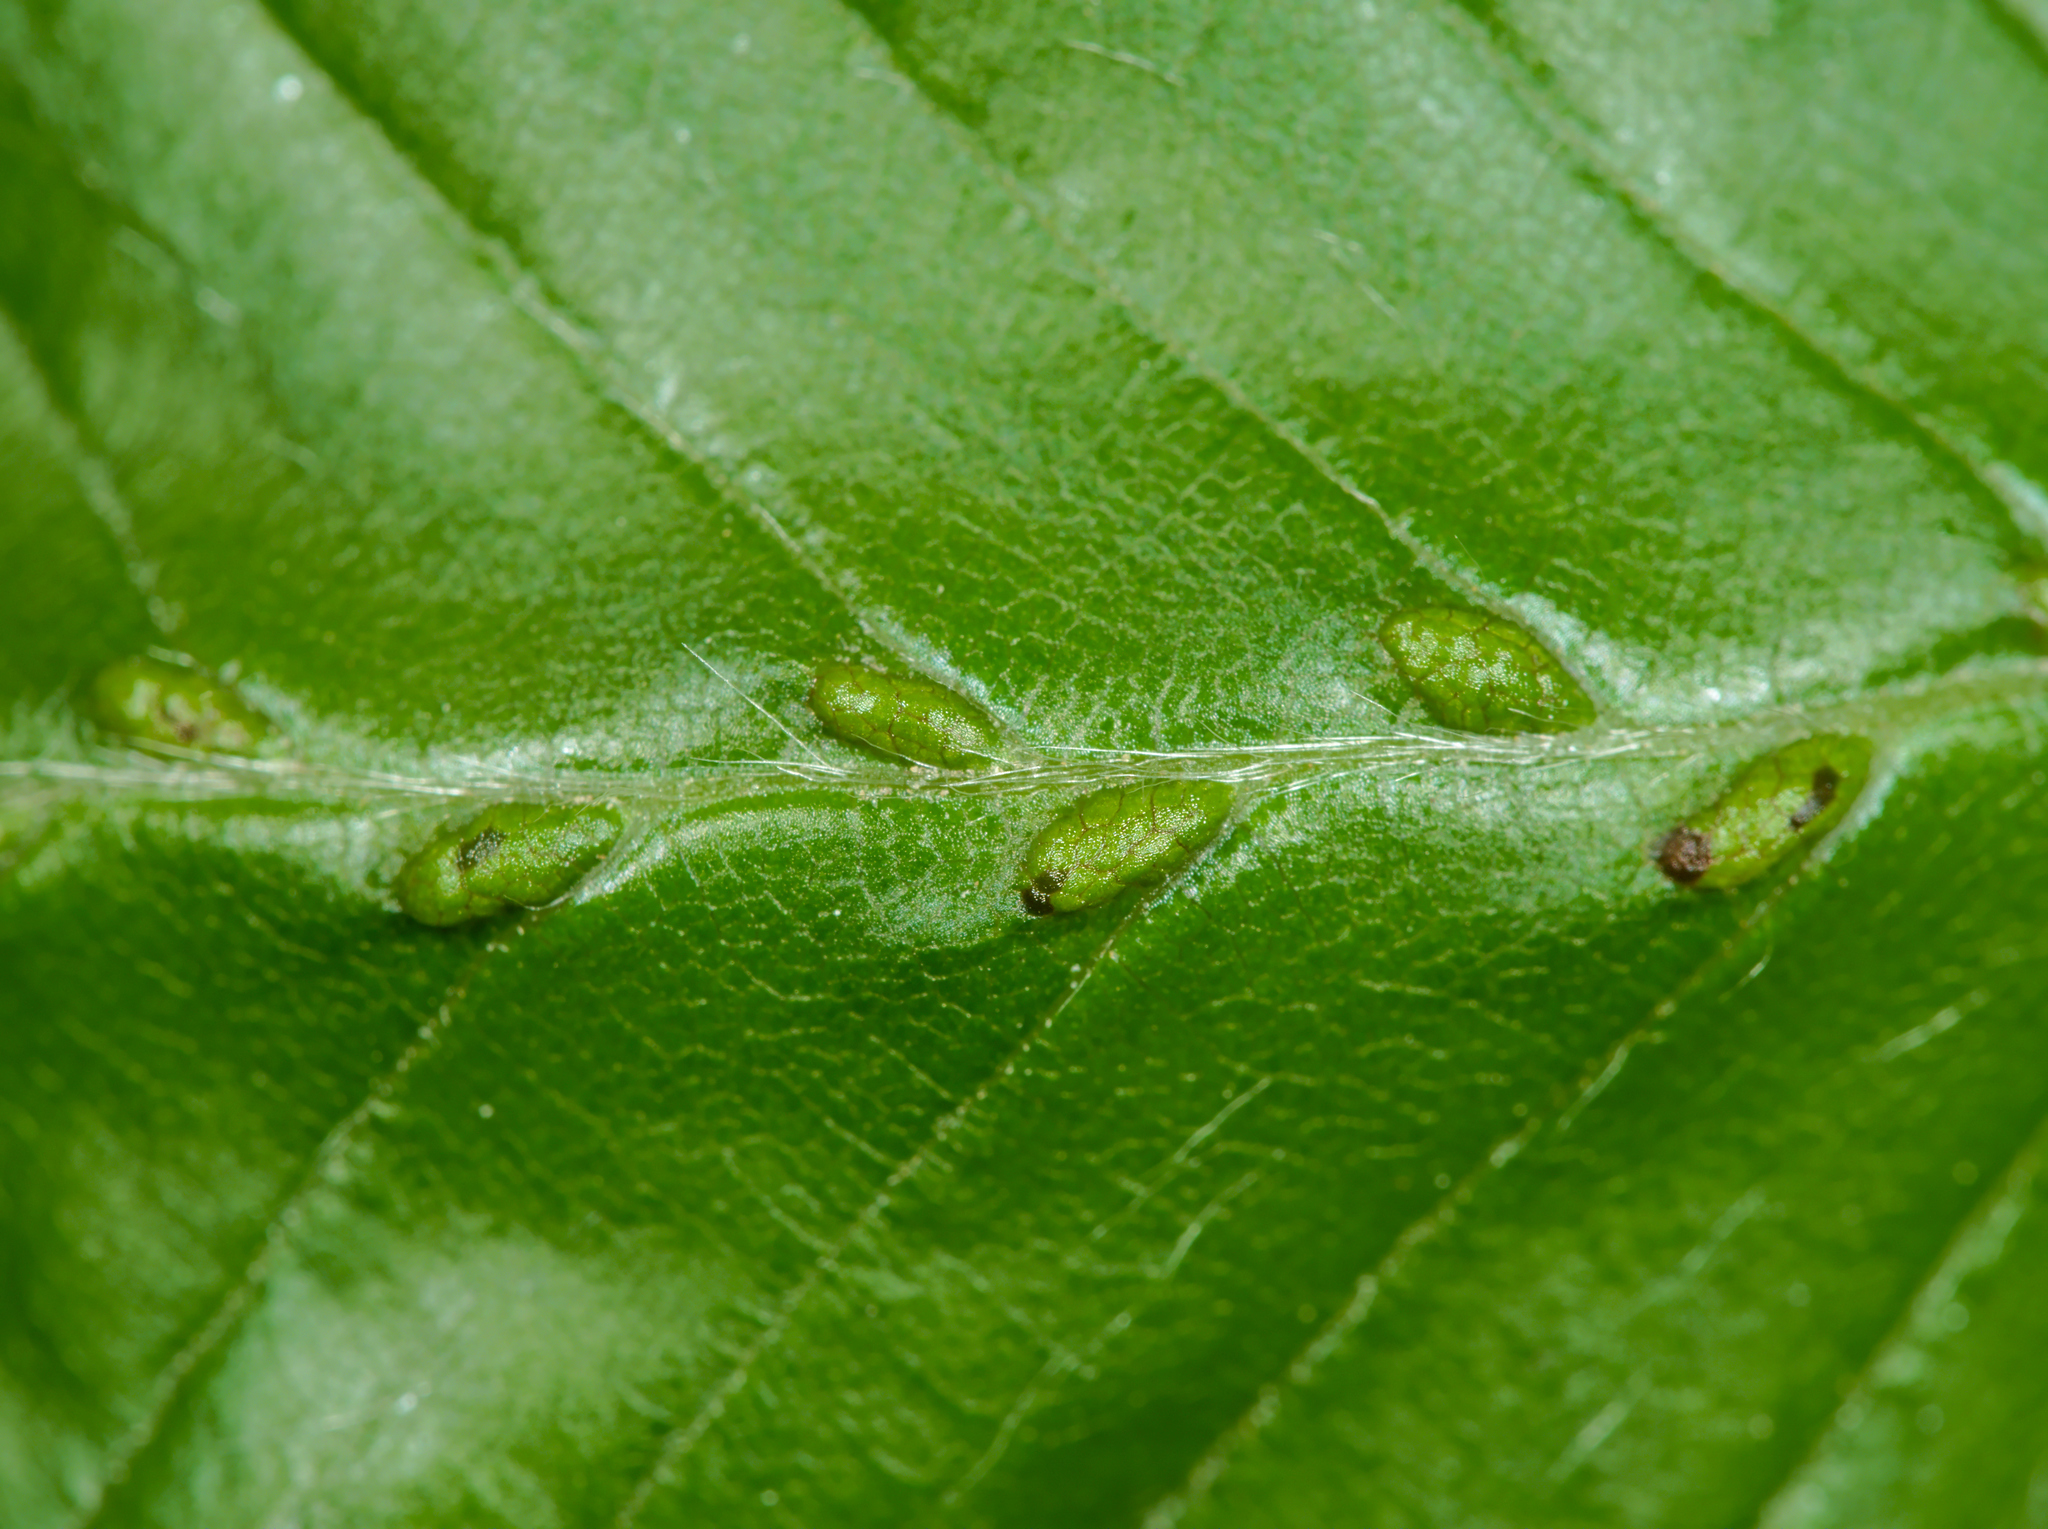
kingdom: Animalia
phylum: Arthropoda
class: Arachnida
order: Trombidiformes
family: Eriophyidae
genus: Aceria
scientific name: Aceria tenellus
